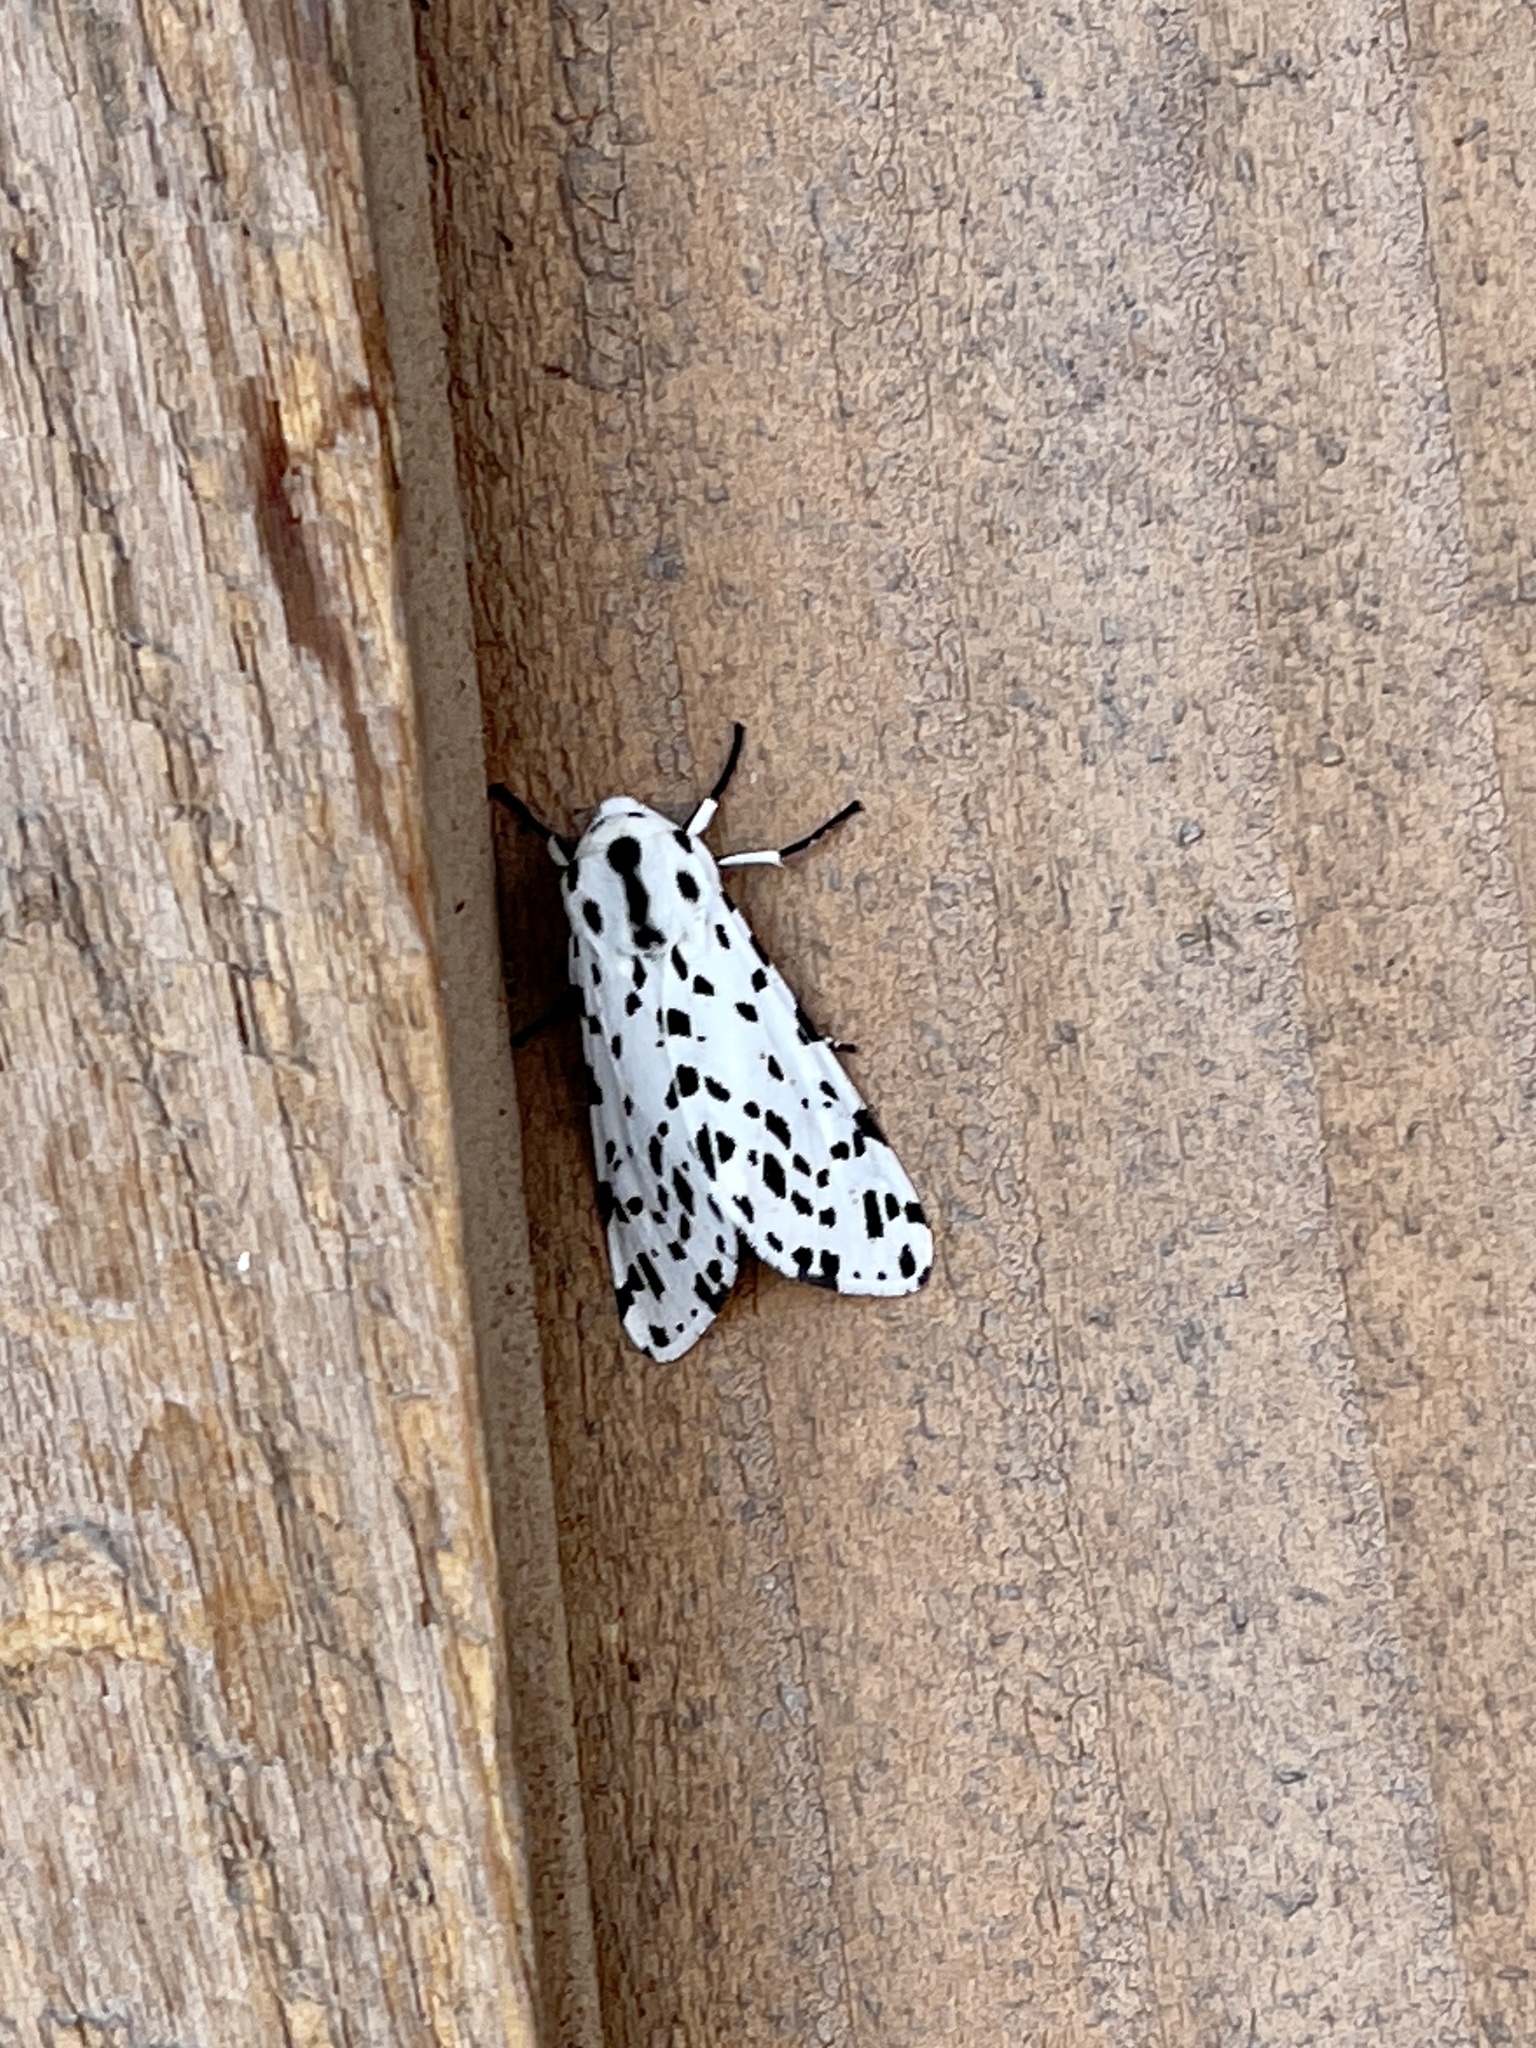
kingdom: Animalia
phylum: Arthropoda
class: Insecta
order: Lepidoptera
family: Erebidae
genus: Hypercompe
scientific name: Hypercompe permaculata
